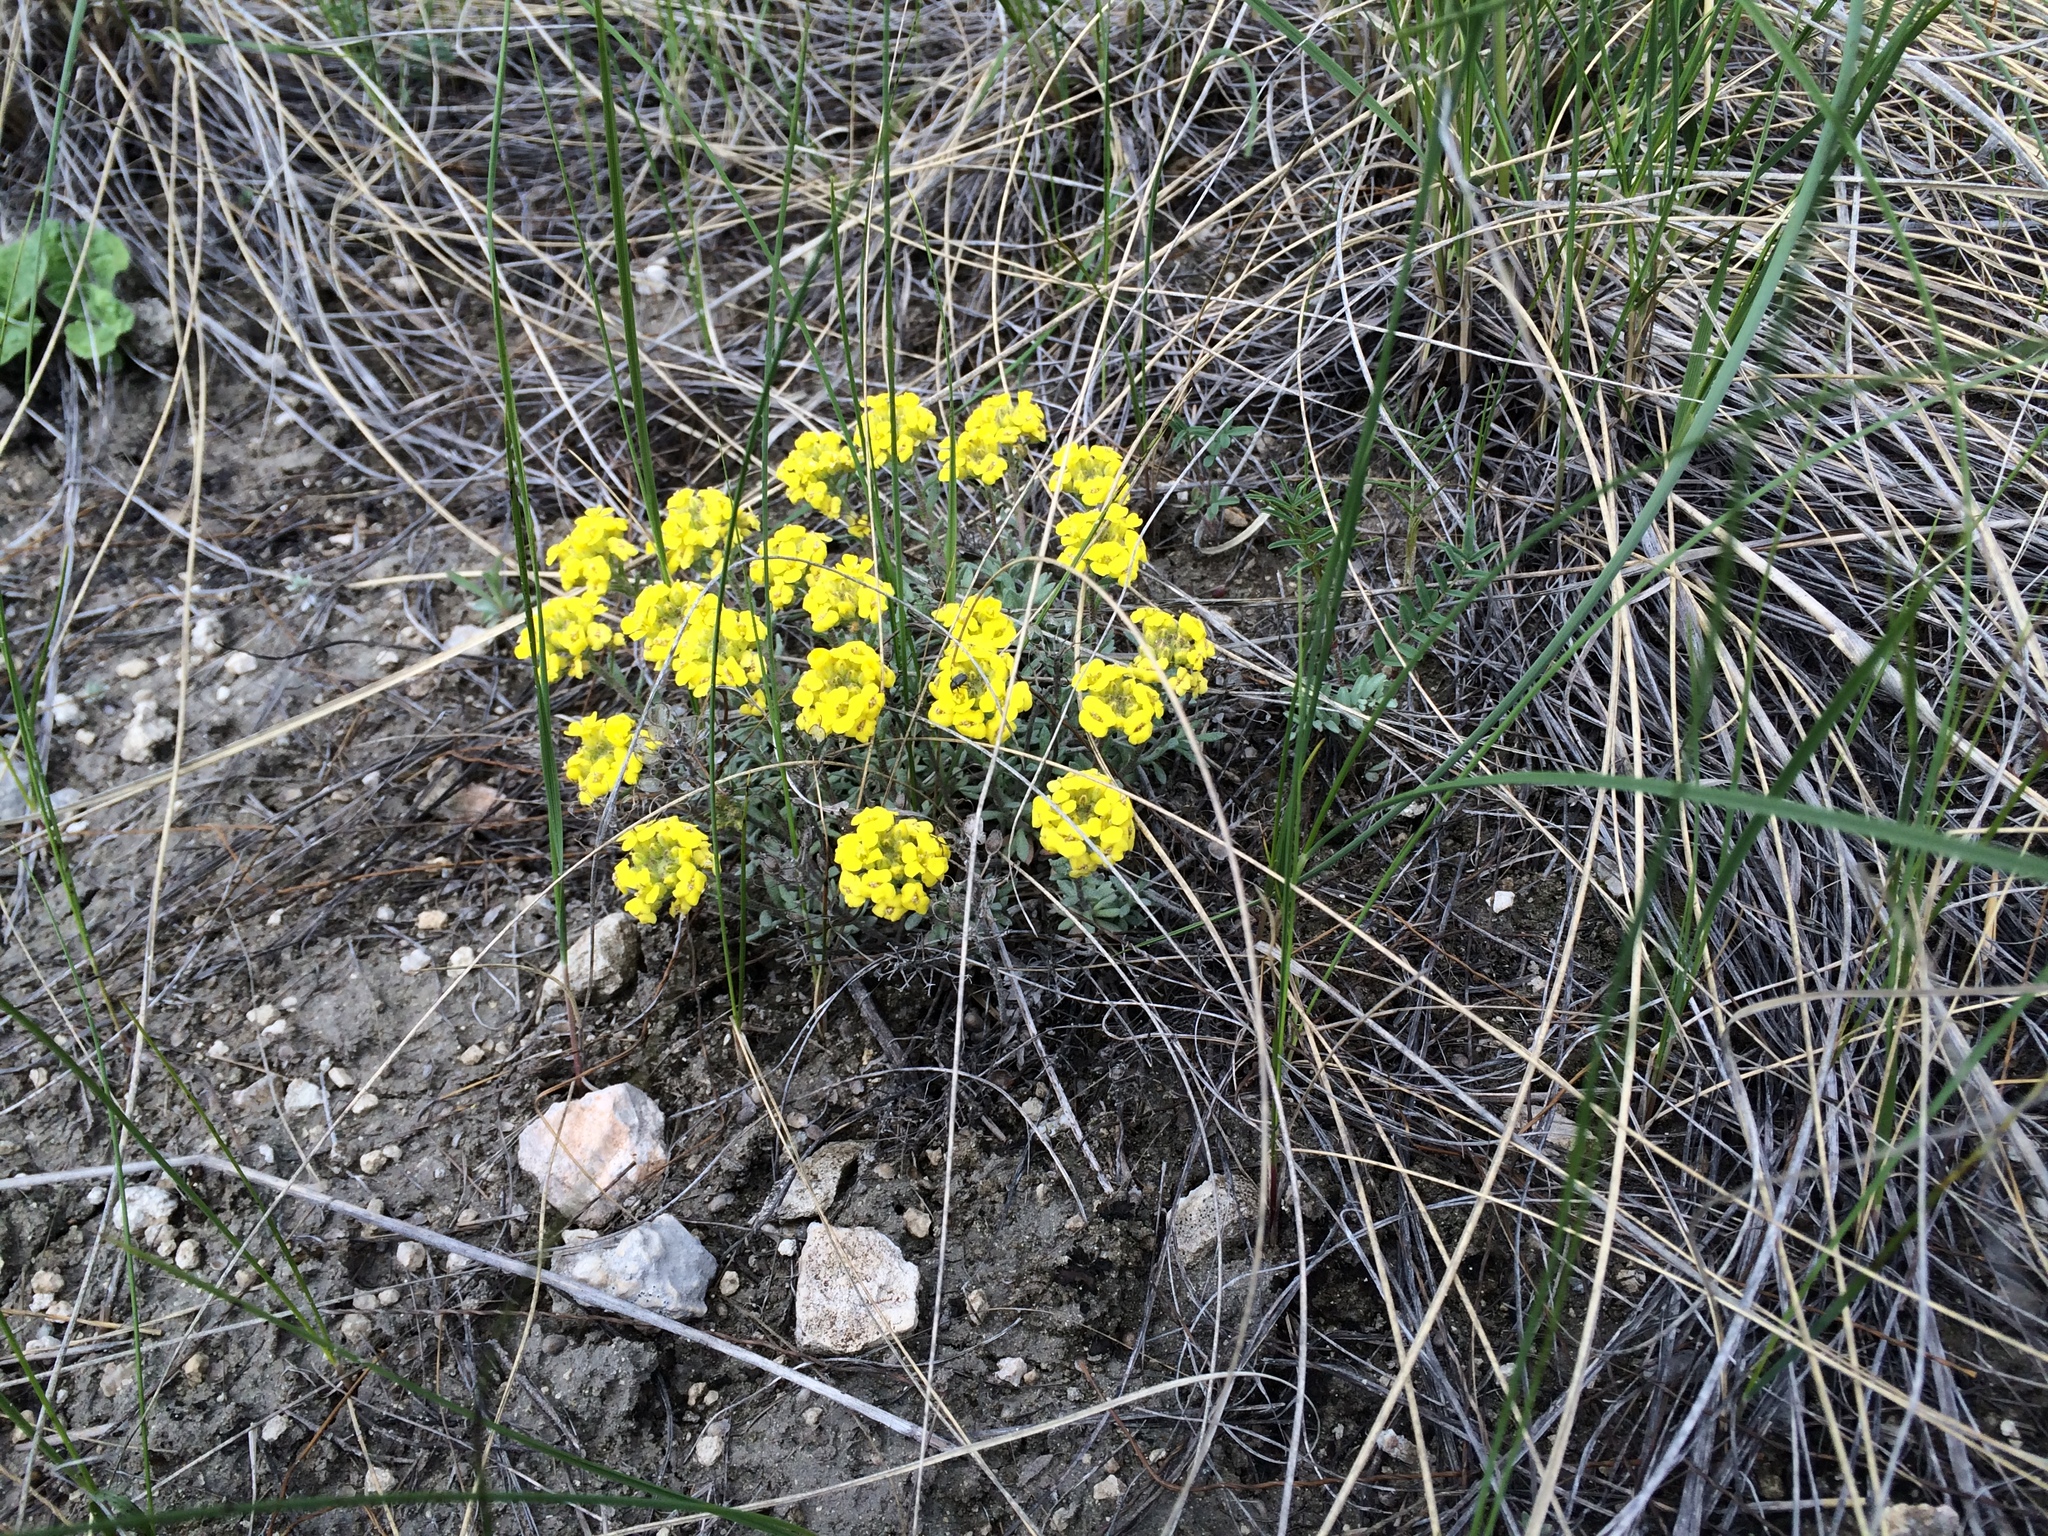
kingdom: Plantae
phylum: Tracheophyta
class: Magnoliopsida
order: Brassicales
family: Brassicaceae
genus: Alyssum
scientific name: Alyssum lenense
